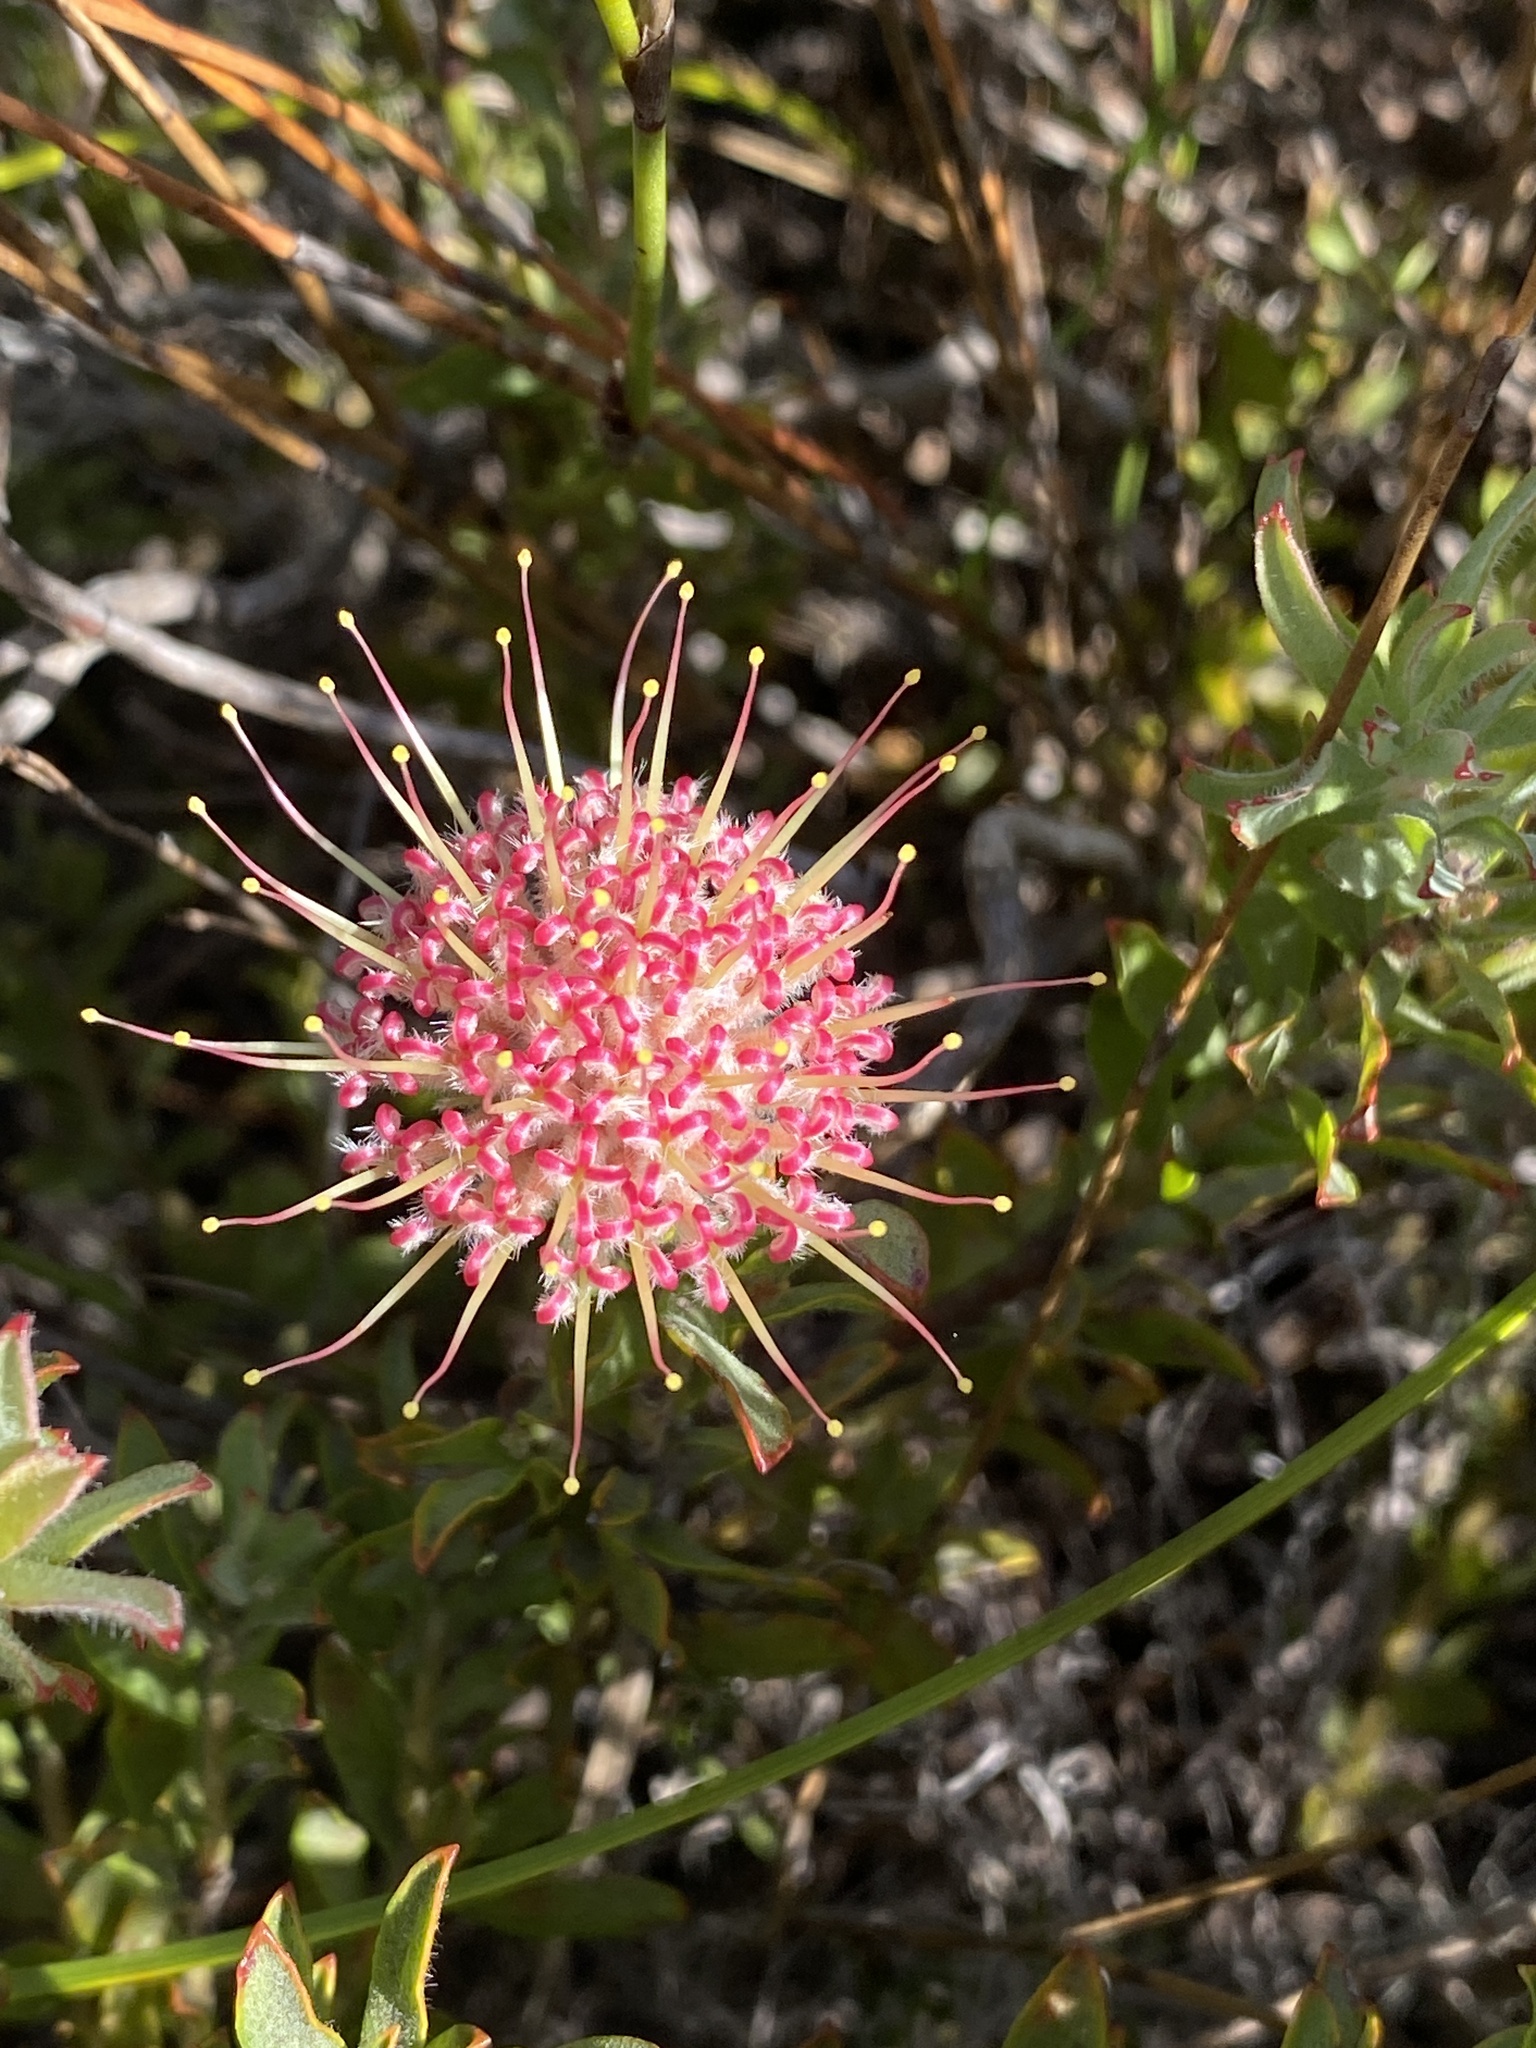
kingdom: Plantae
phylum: Tracheophyta
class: Magnoliopsida
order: Proteales
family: Proteaceae
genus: Leucospermum
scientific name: Leucospermum heterophyllum
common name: Trident pincushion
